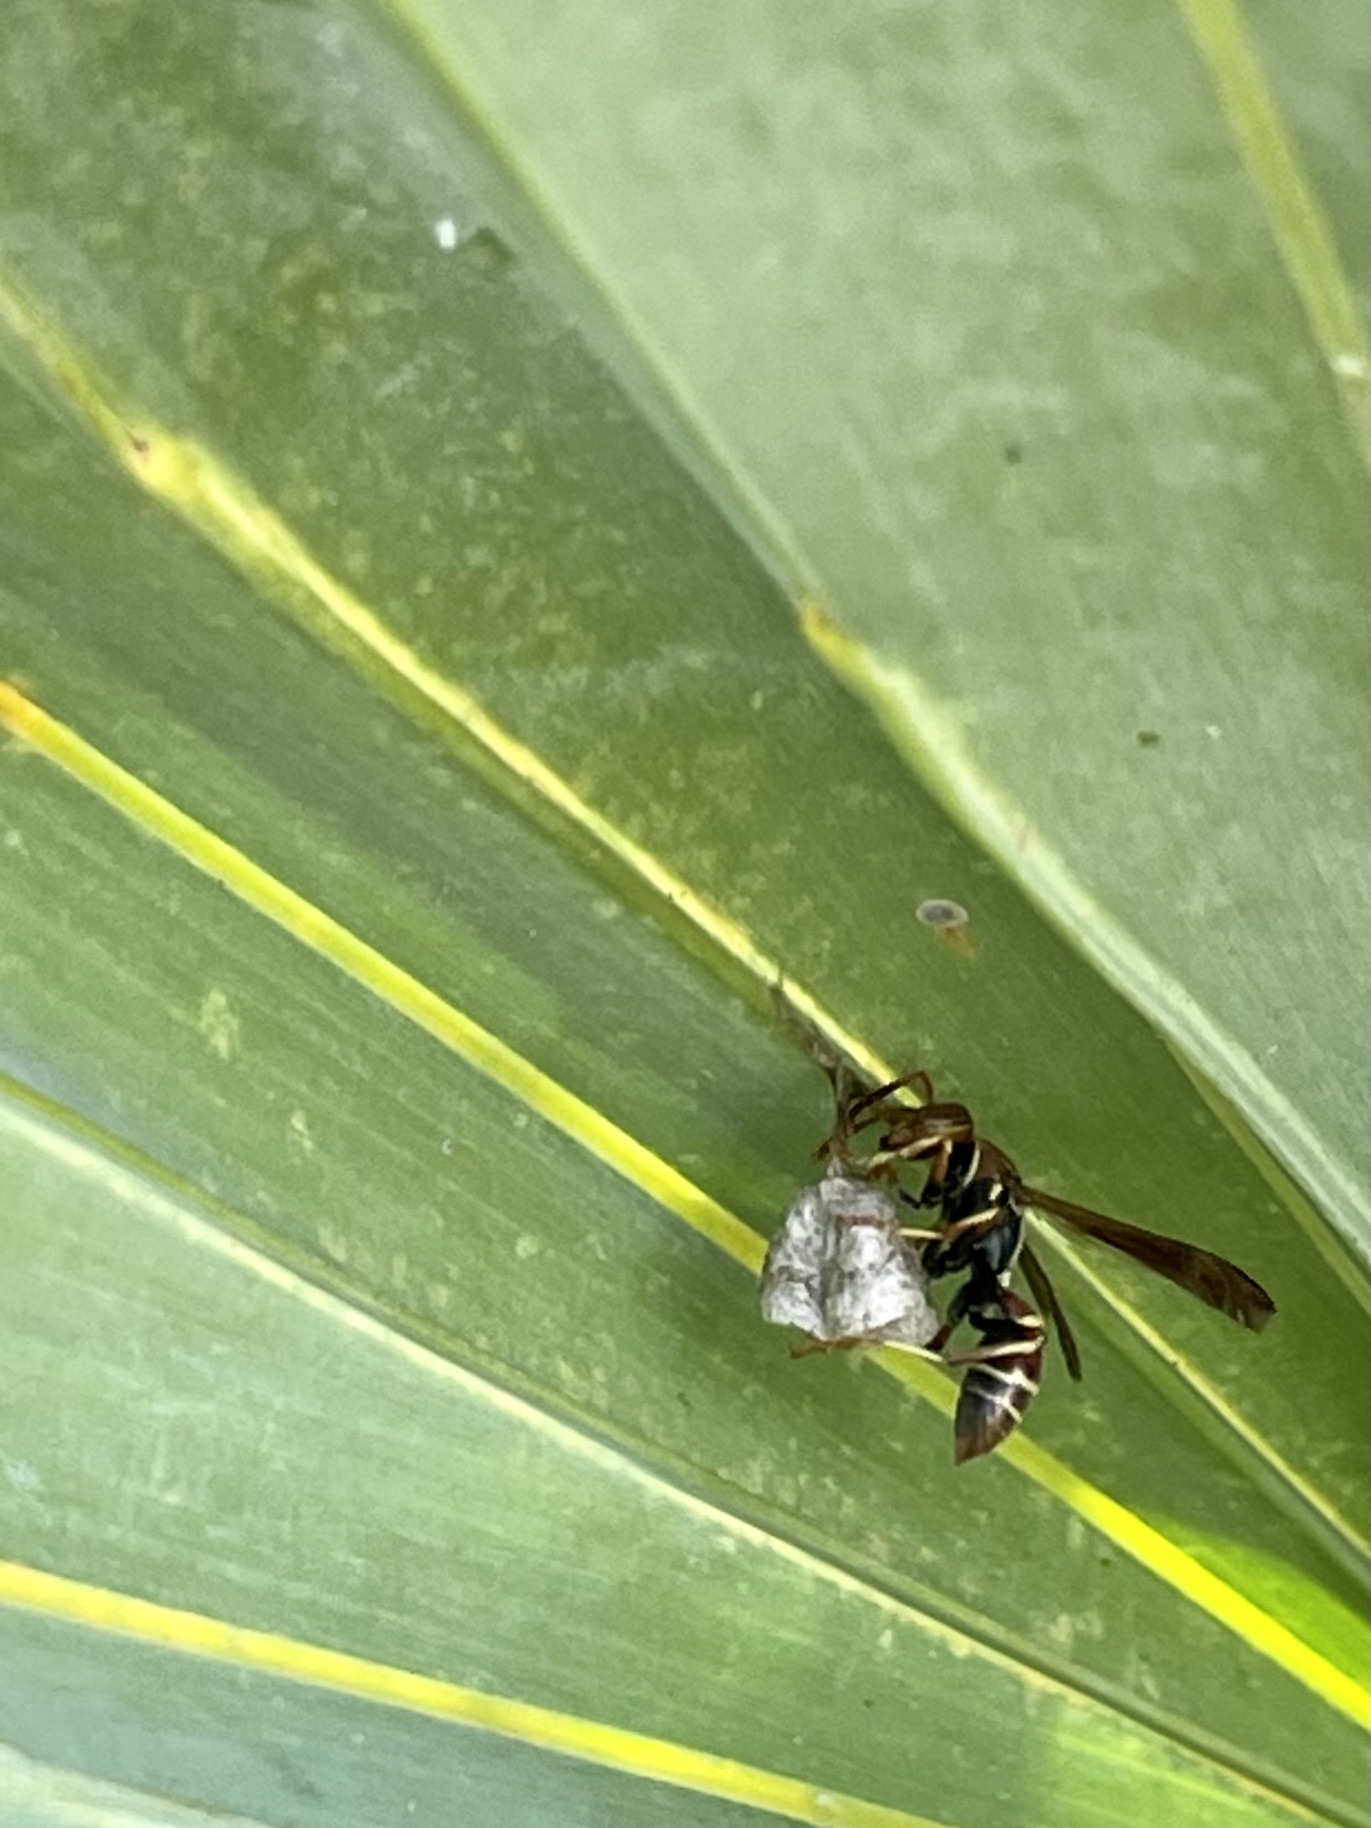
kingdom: Animalia
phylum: Arthropoda
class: Insecta
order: Hymenoptera
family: Eumenidae
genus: Polistes
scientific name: Polistes bahamensis
